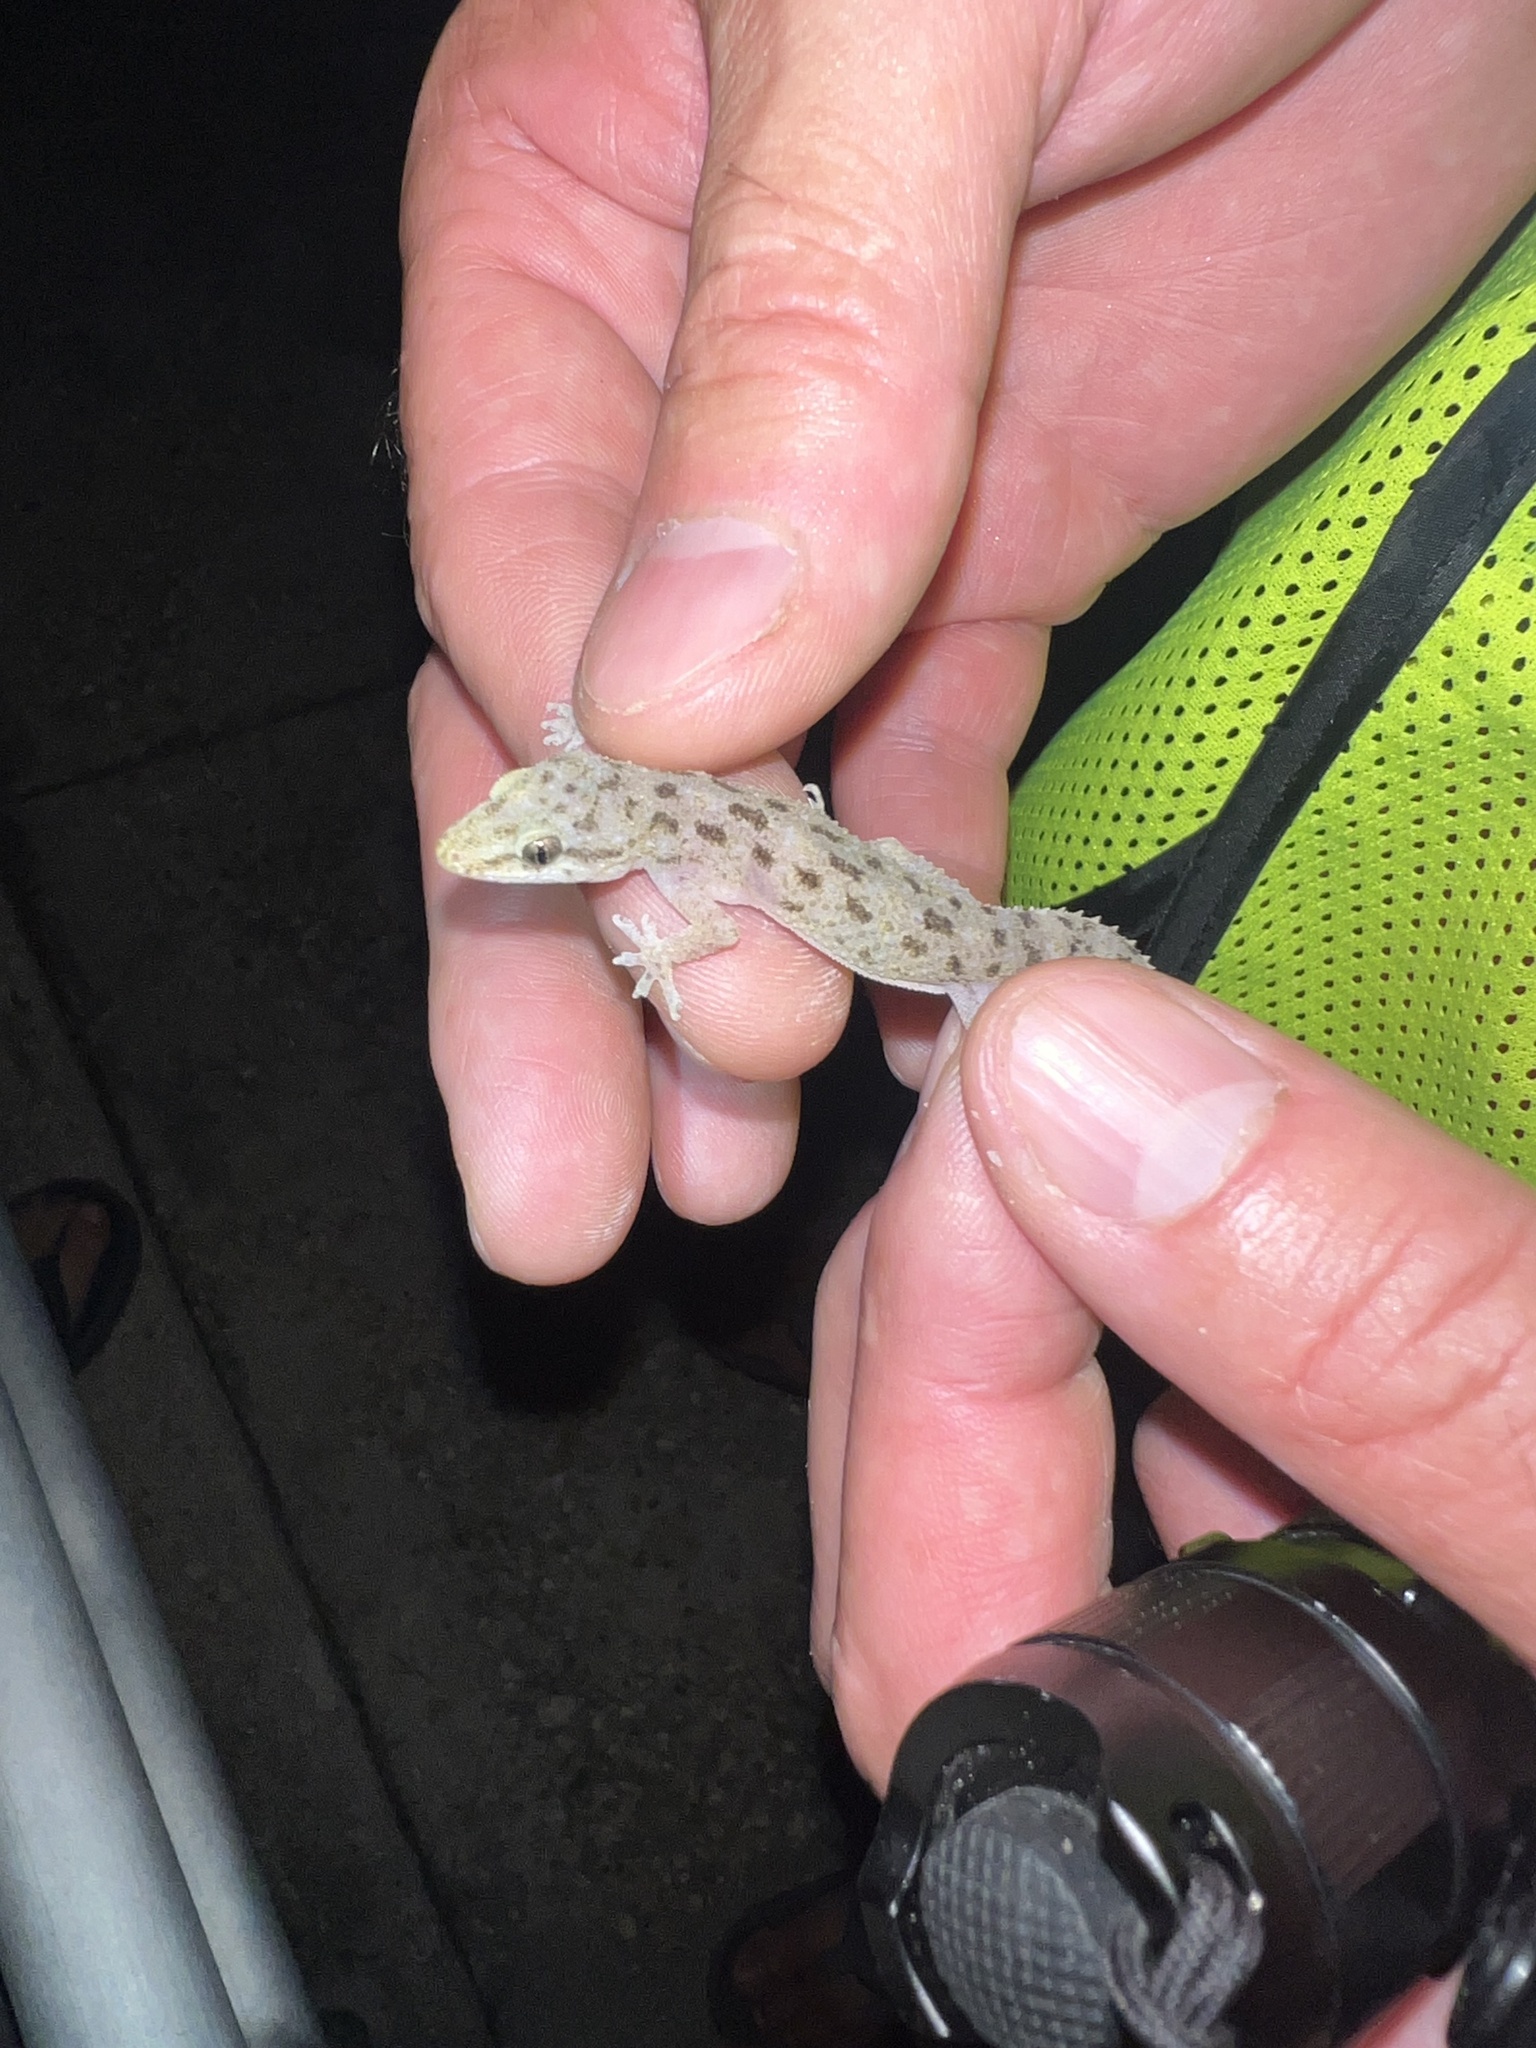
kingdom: Animalia
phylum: Chordata
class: Squamata
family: Gekkonidae
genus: Hemidactylus
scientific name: Hemidactylus parvimaculatus
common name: Spotted house gecko
